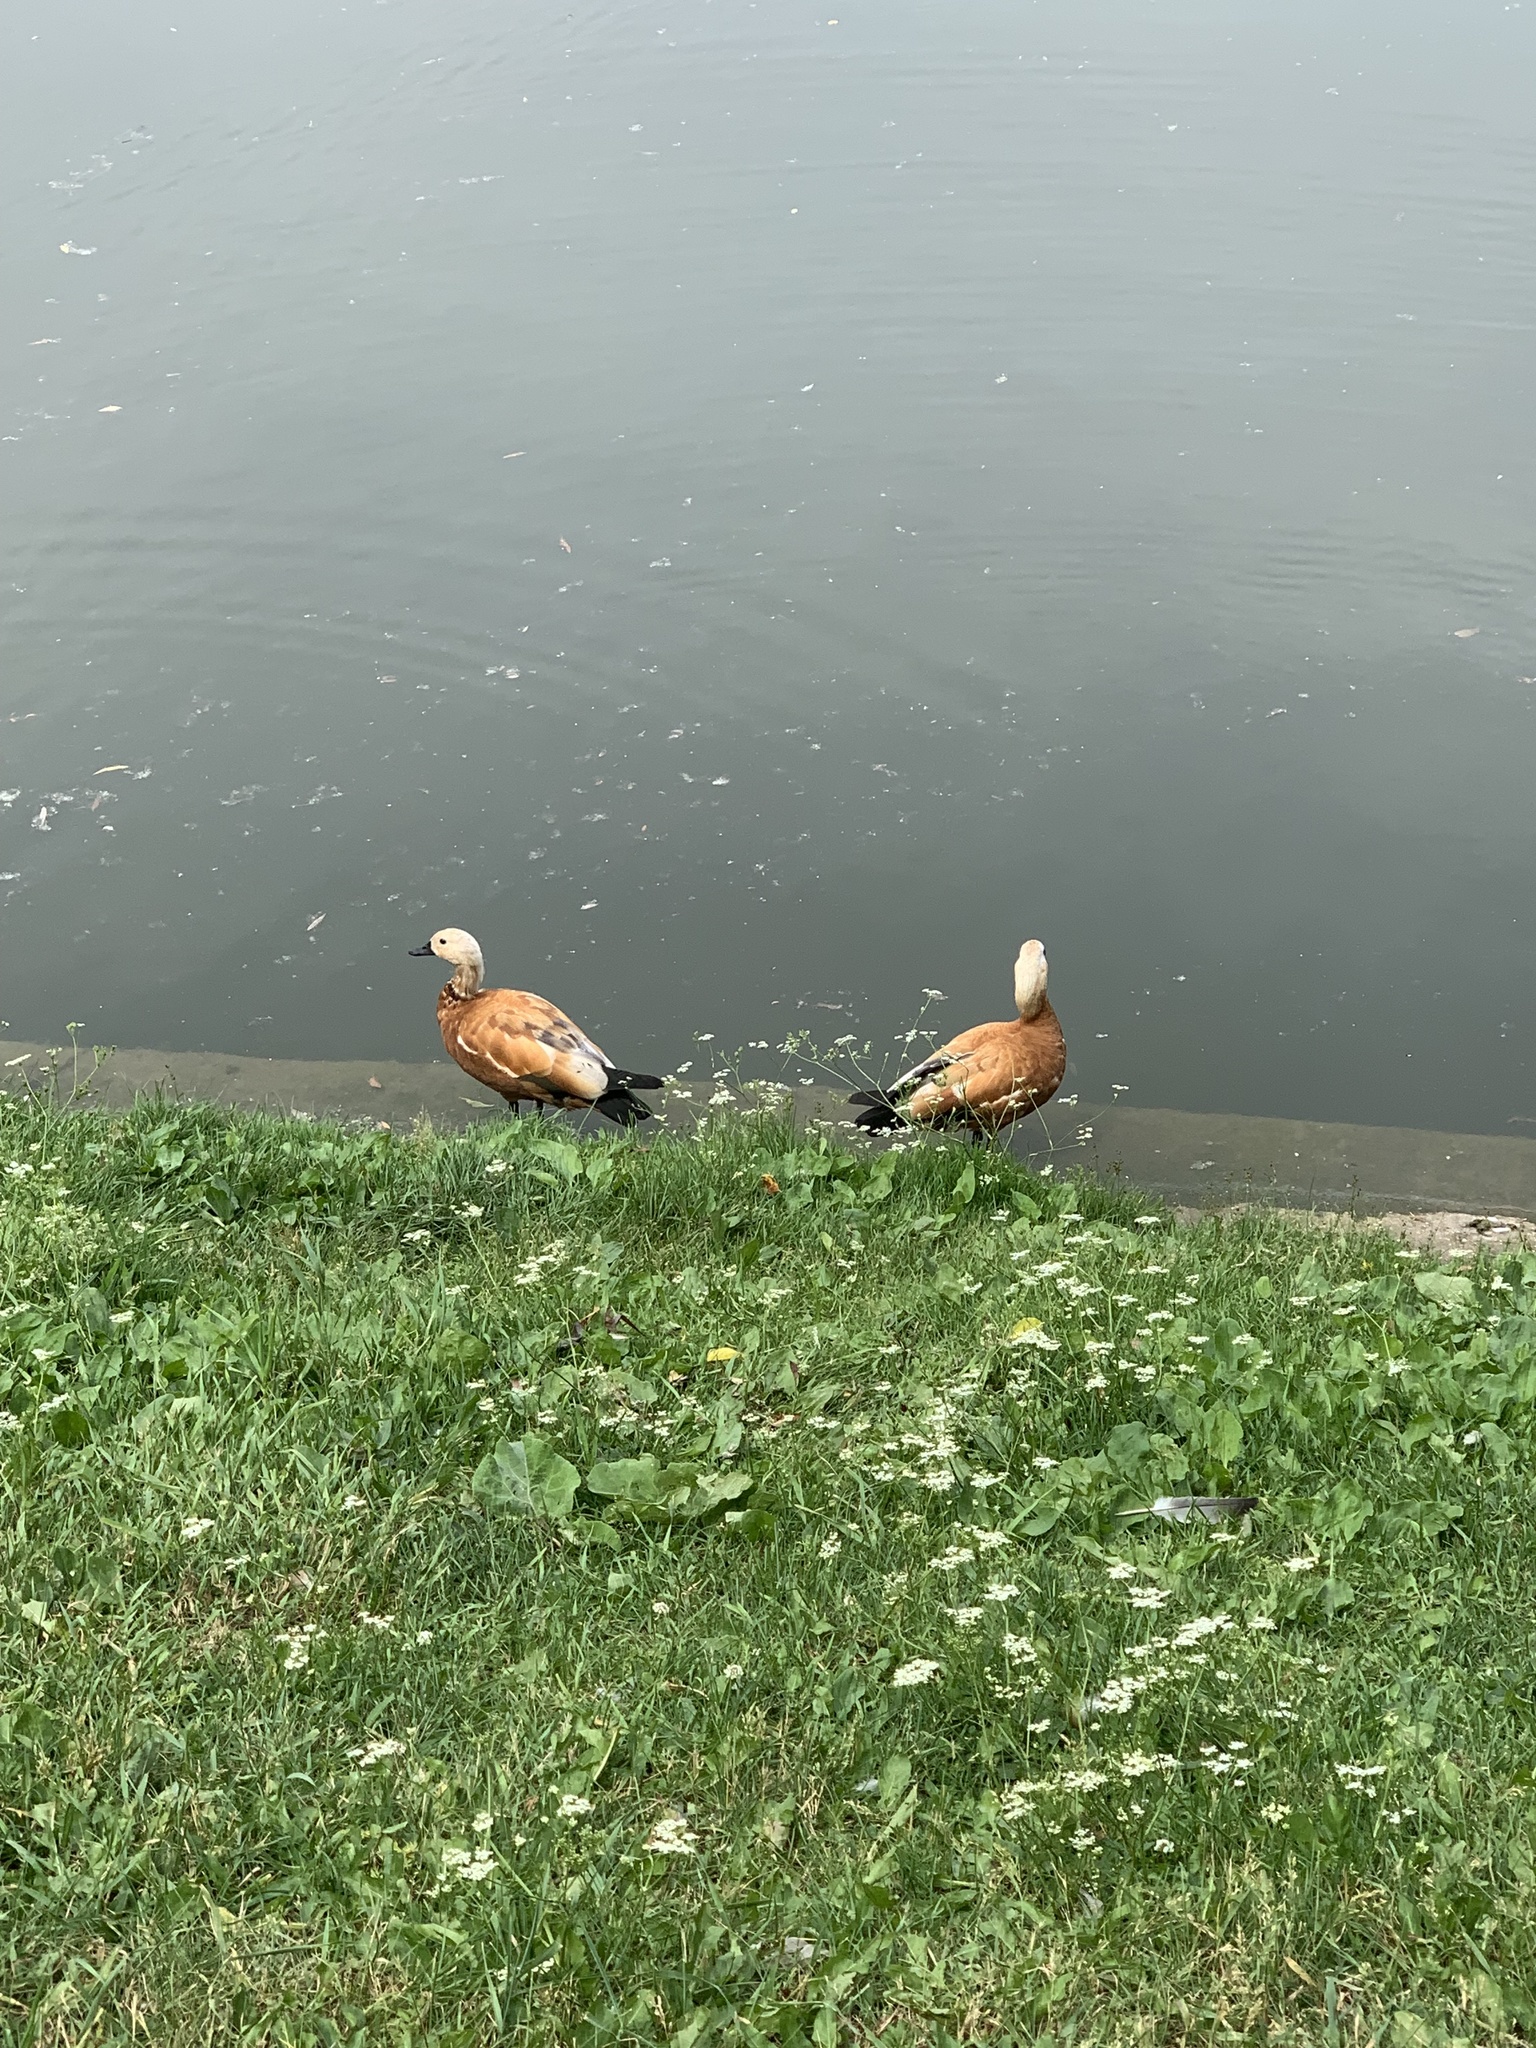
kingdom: Animalia
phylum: Chordata
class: Aves
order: Anseriformes
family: Anatidae
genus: Tadorna
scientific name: Tadorna ferruginea
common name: Ruddy shelduck
